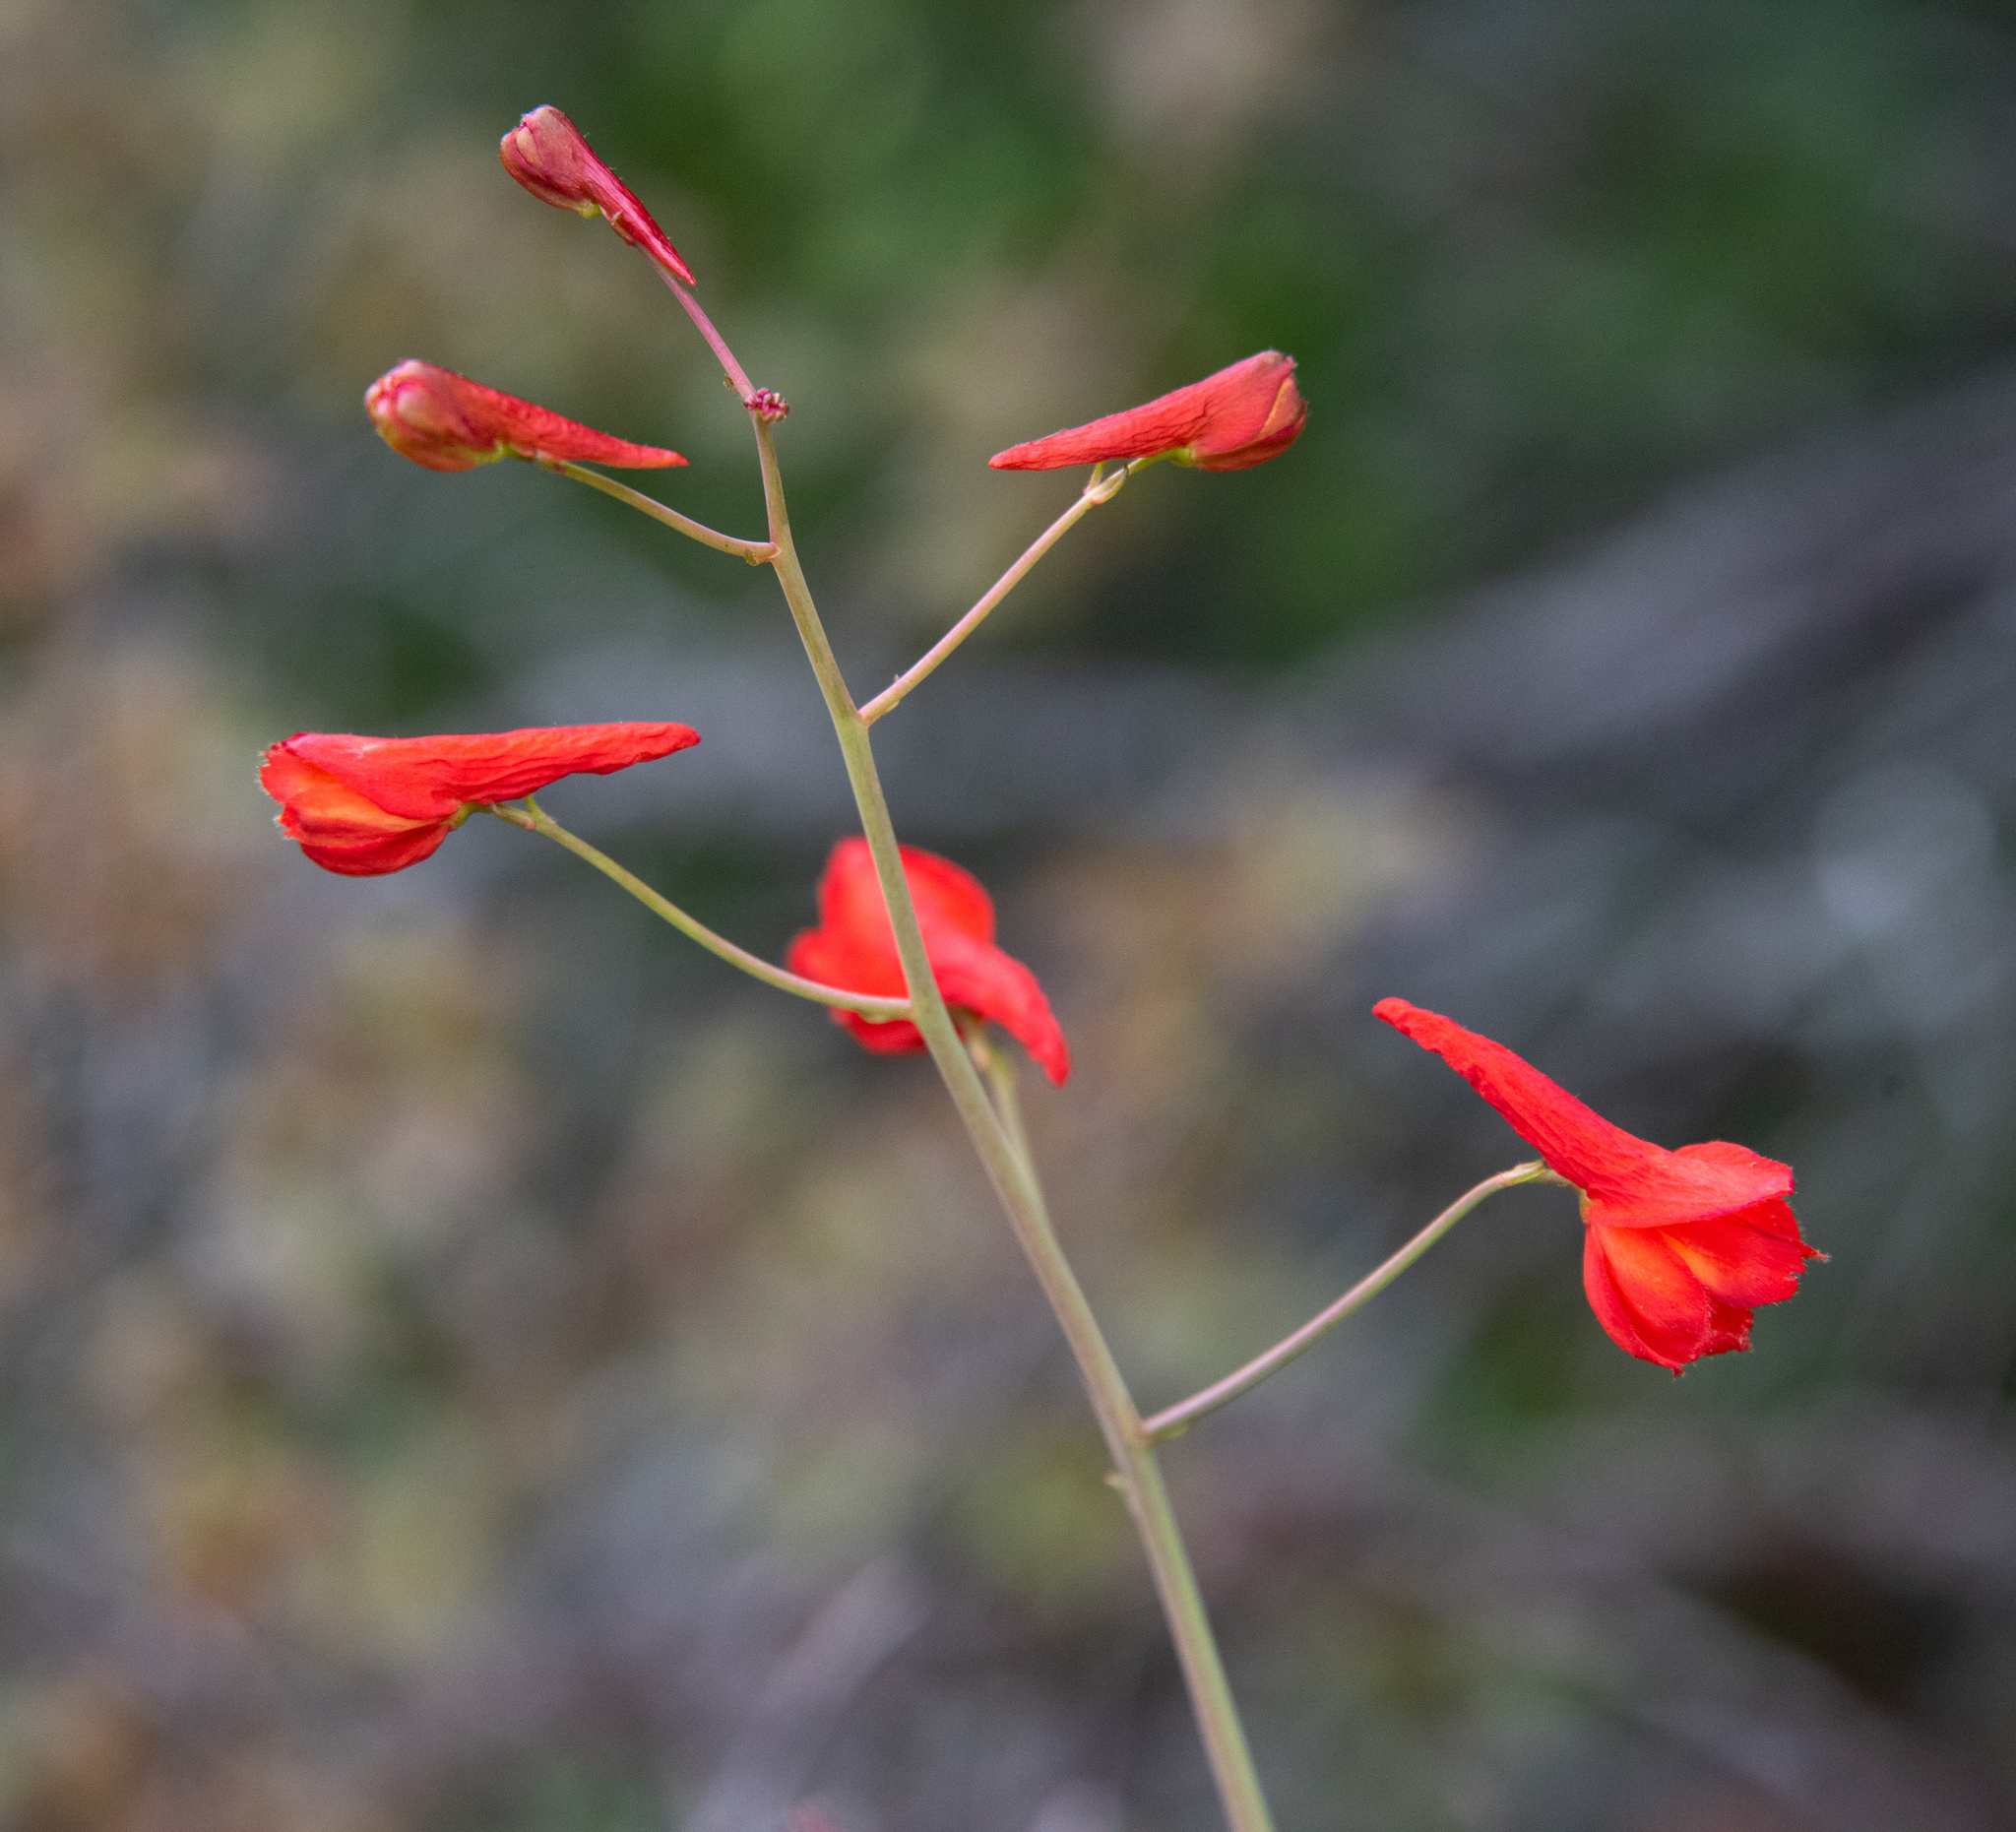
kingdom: Plantae
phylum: Tracheophyta
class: Magnoliopsida
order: Ranunculales
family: Ranunculaceae
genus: Delphinium
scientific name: Delphinium nudicaule
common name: Red larkspur
